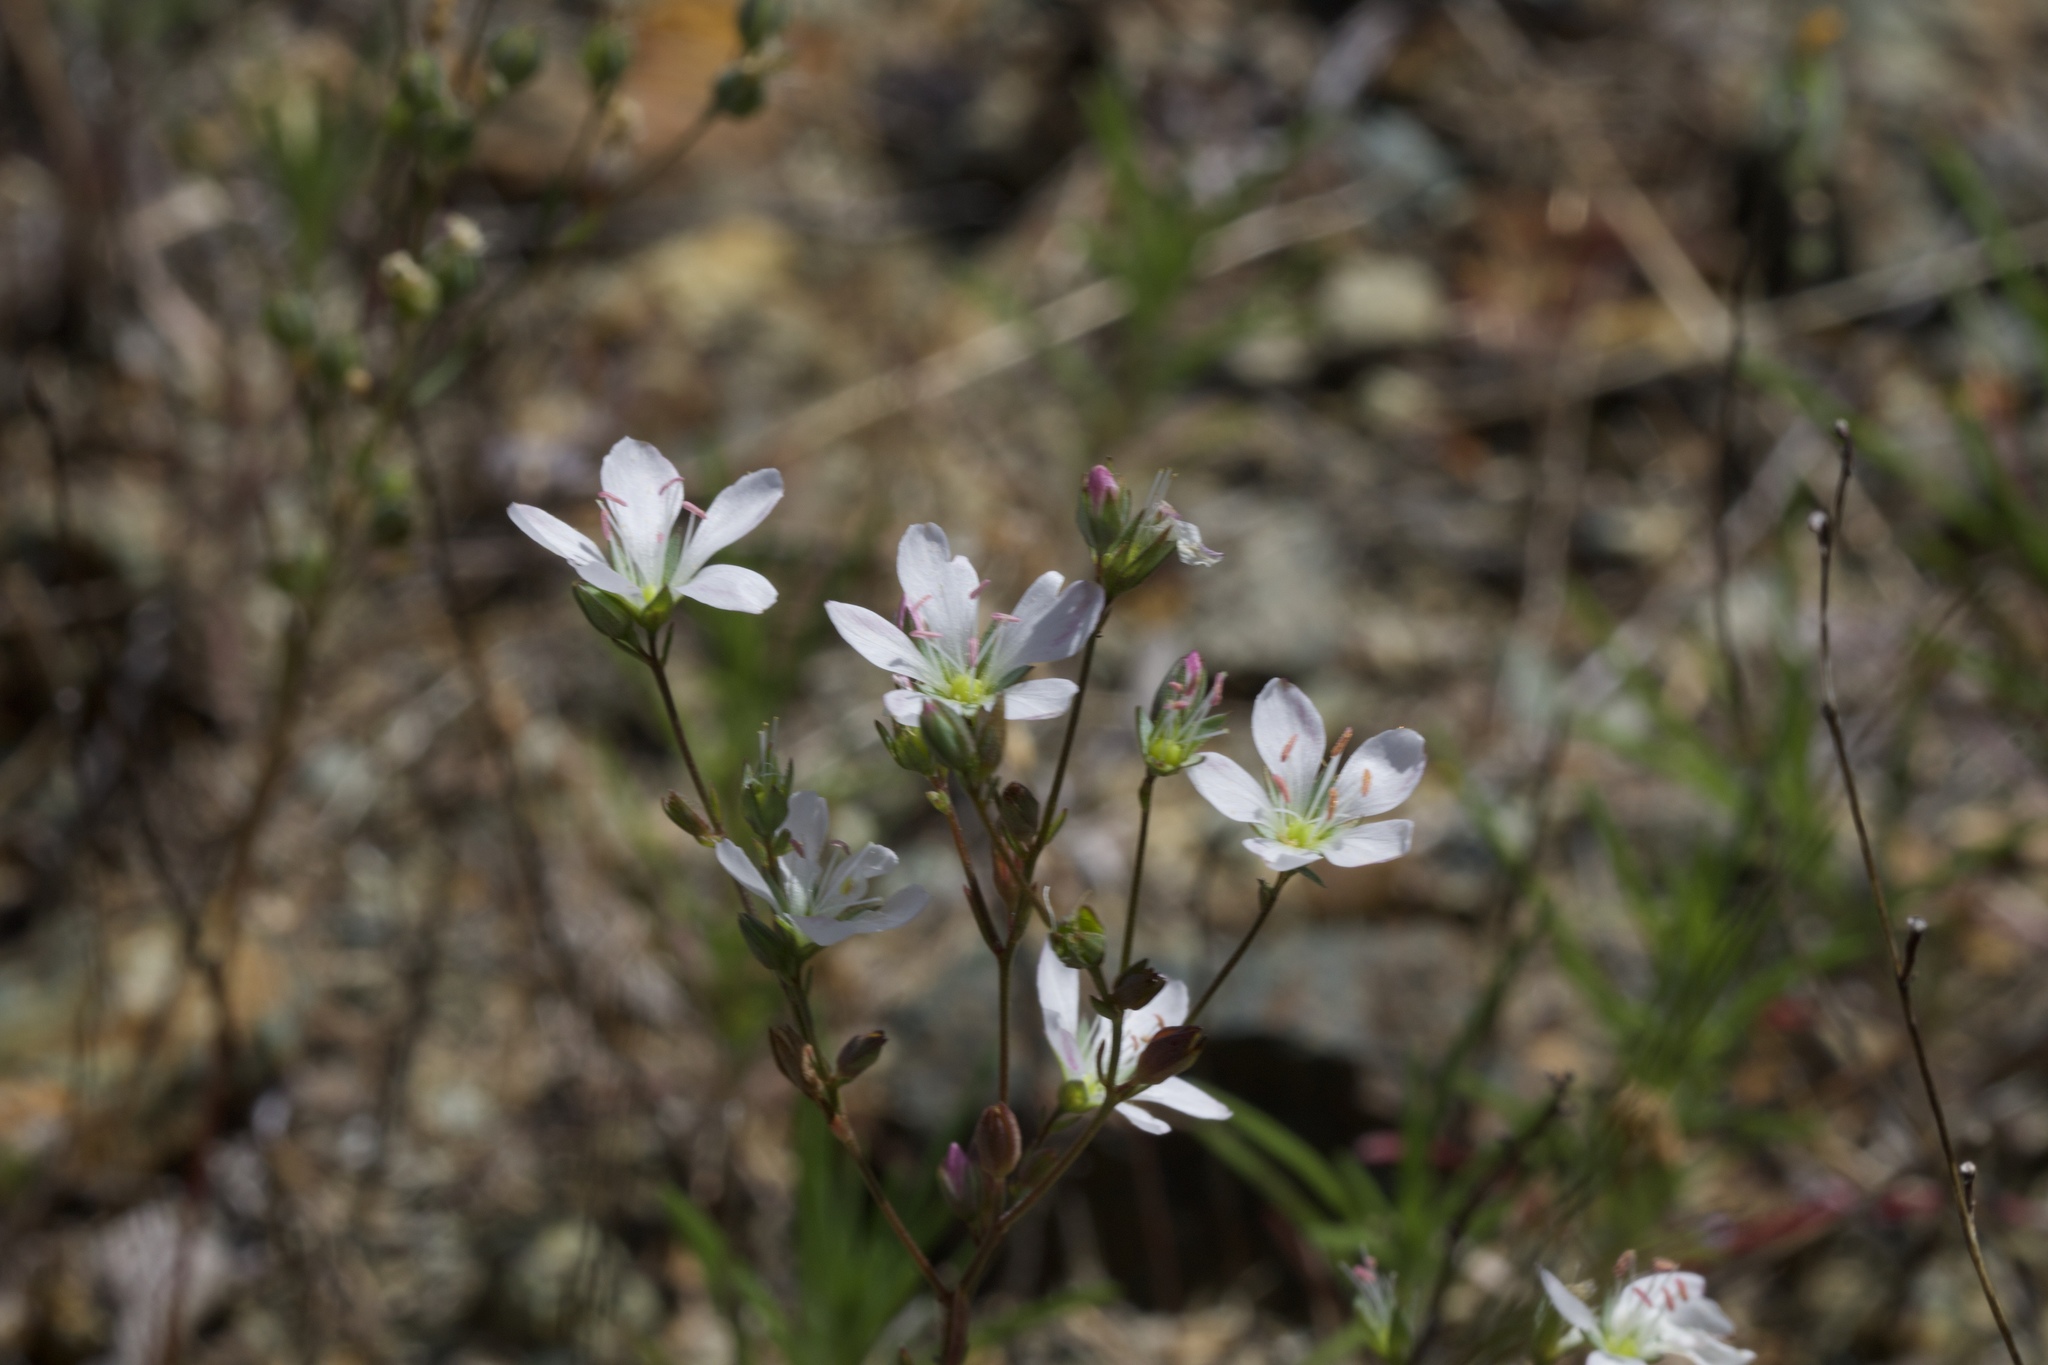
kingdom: Plantae
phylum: Tracheophyta
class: Magnoliopsida
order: Malpighiales
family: Linaceae
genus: Hesperolinon
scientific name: Hesperolinon californicum
